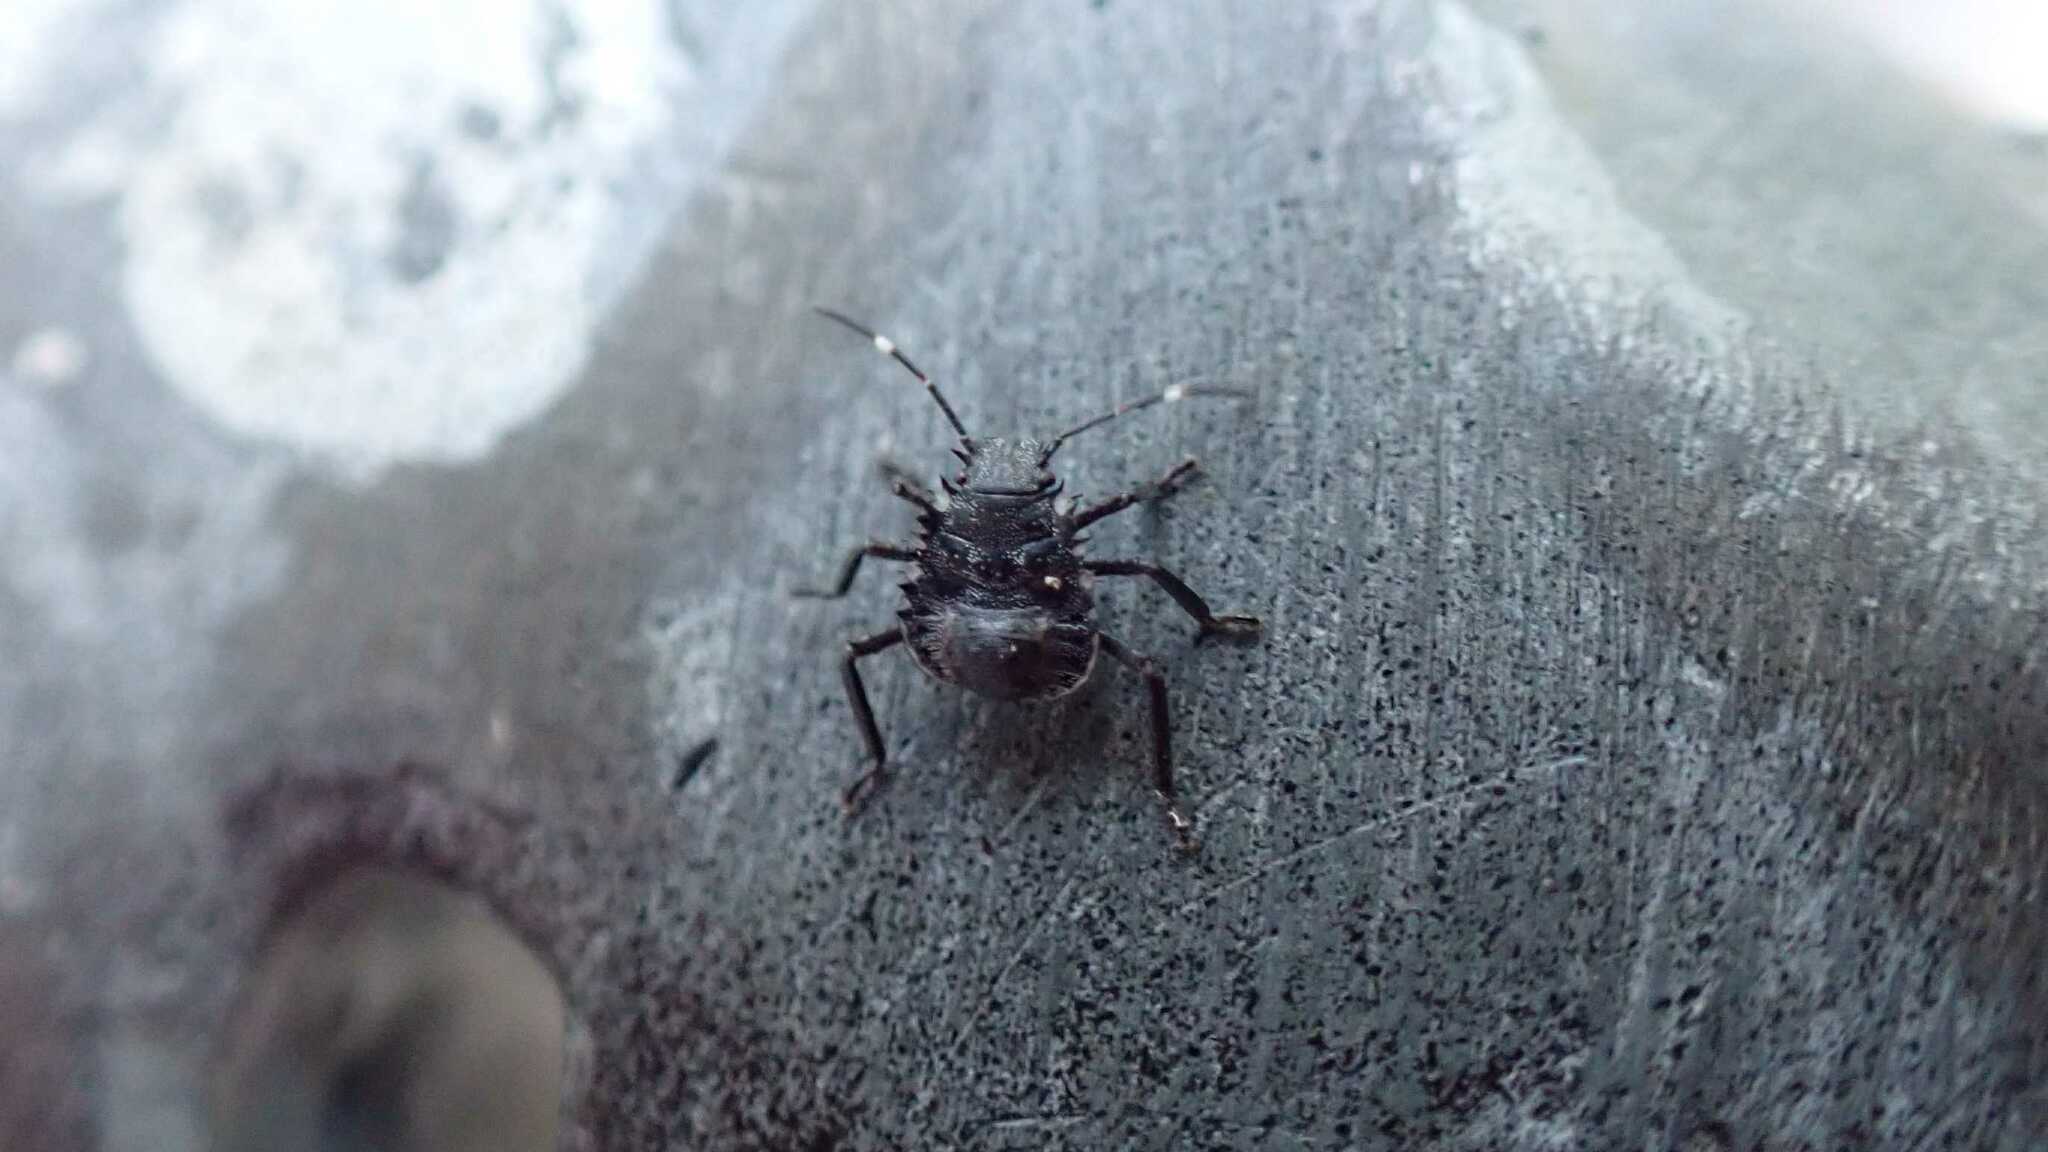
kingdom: Animalia
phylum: Arthropoda
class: Insecta
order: Hemiptera
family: Pentatomidae
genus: Halyomorpha
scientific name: Halyomorpha halys
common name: Brown marmorated stink bug
